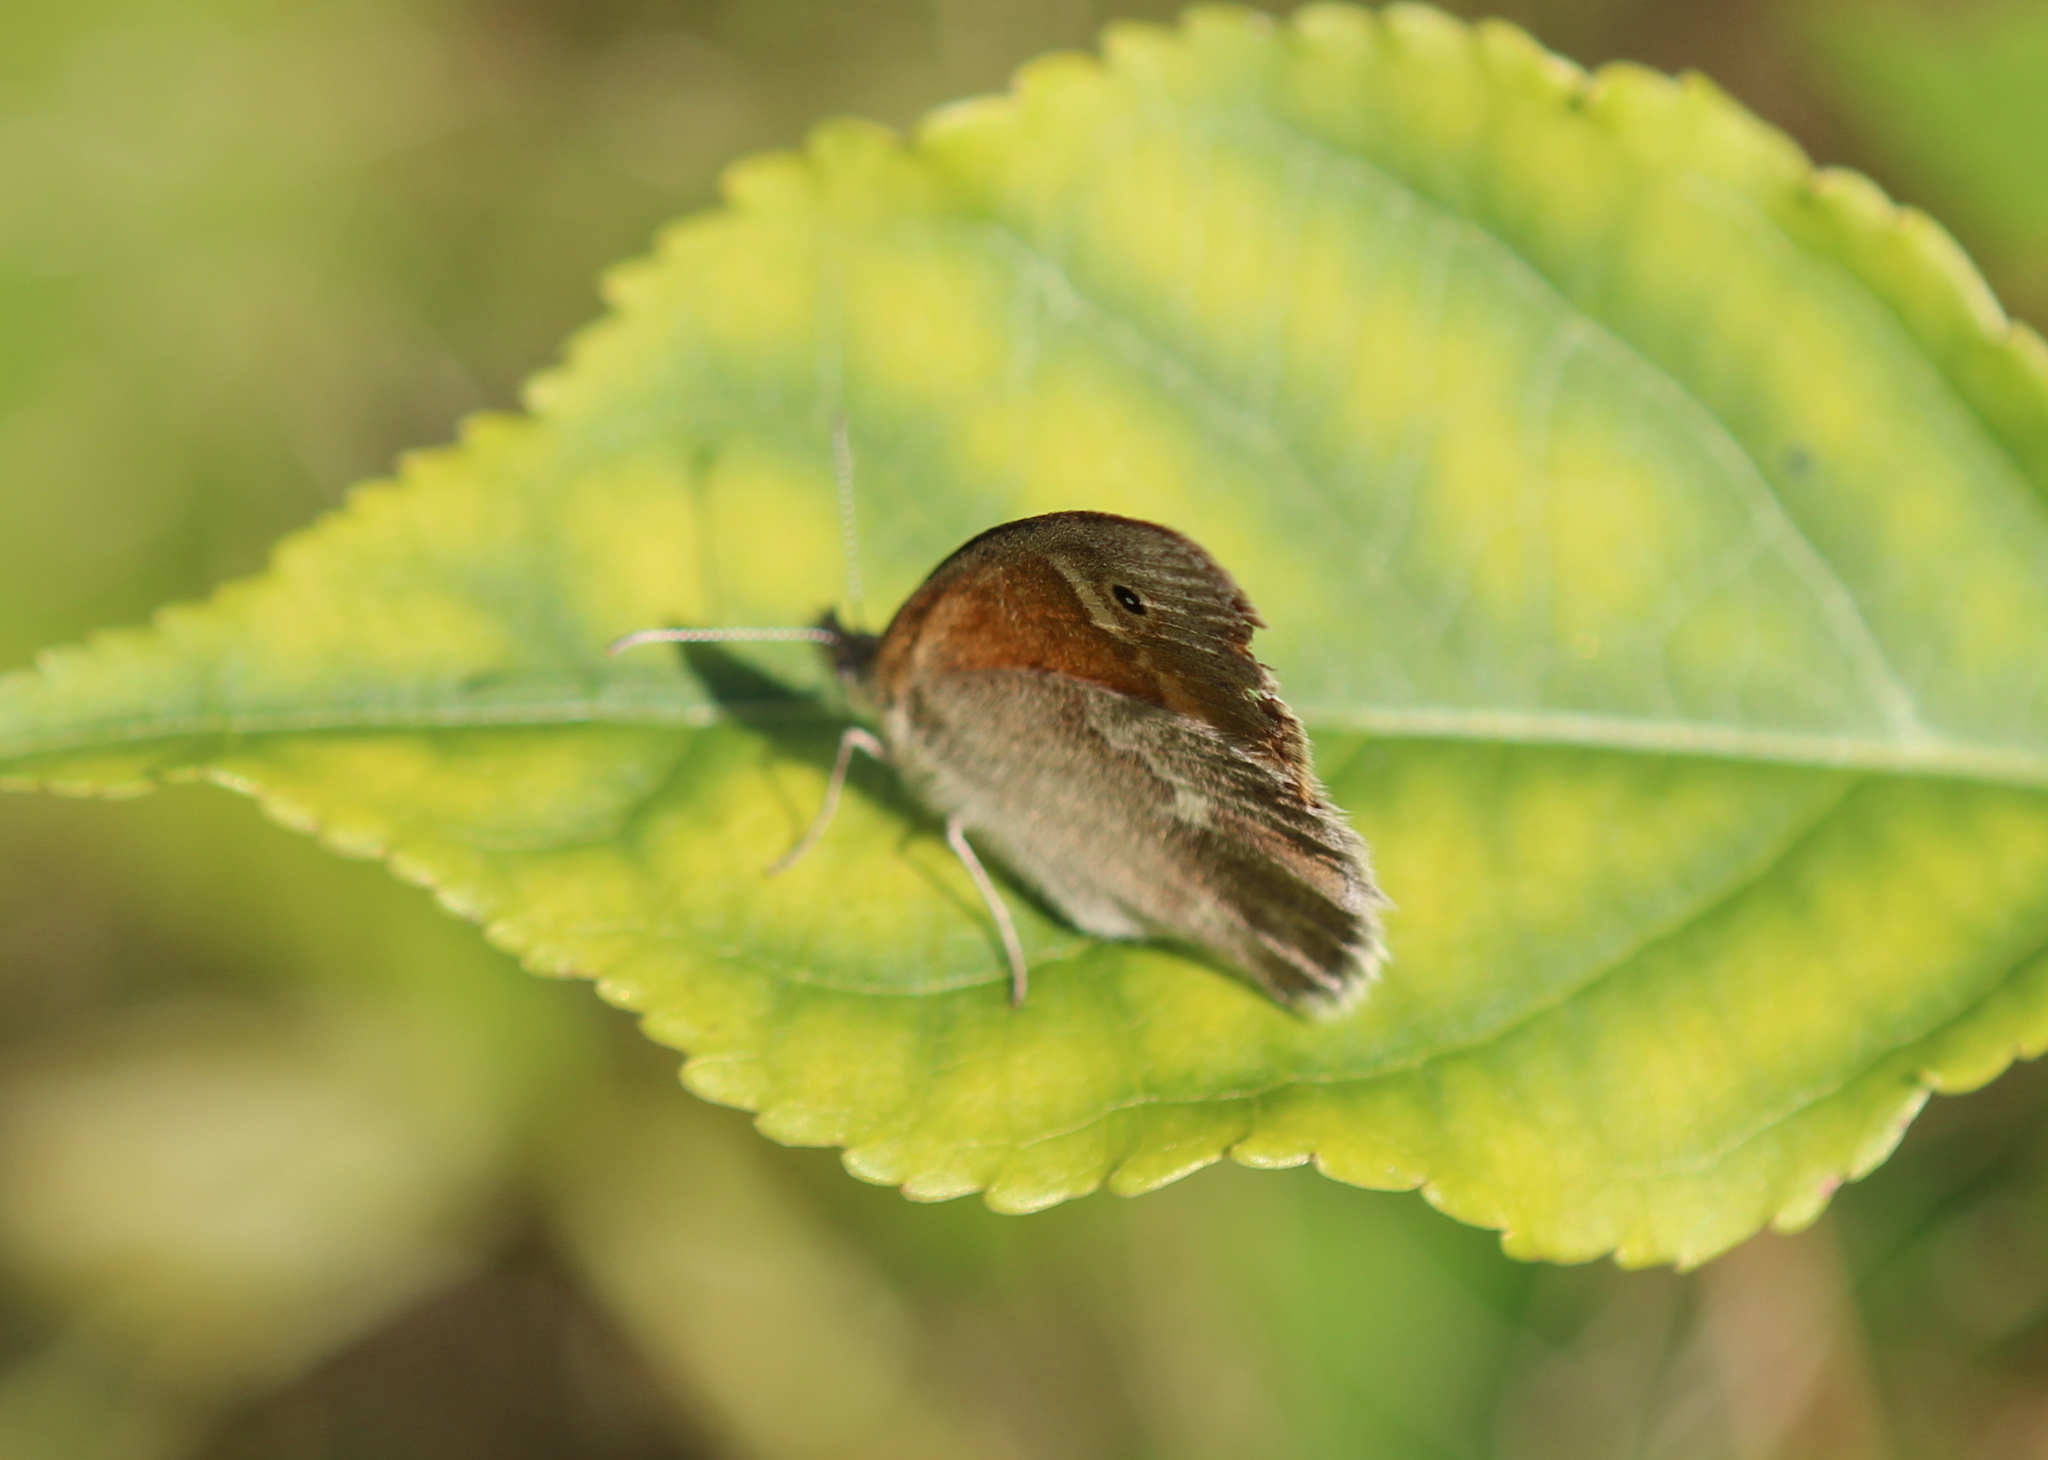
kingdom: Animalia
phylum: Arthropoda
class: Insecta
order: Lepidoptera
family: Nymphalidae
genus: Coenonympha
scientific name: Coenonympha california
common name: Common ringlet
